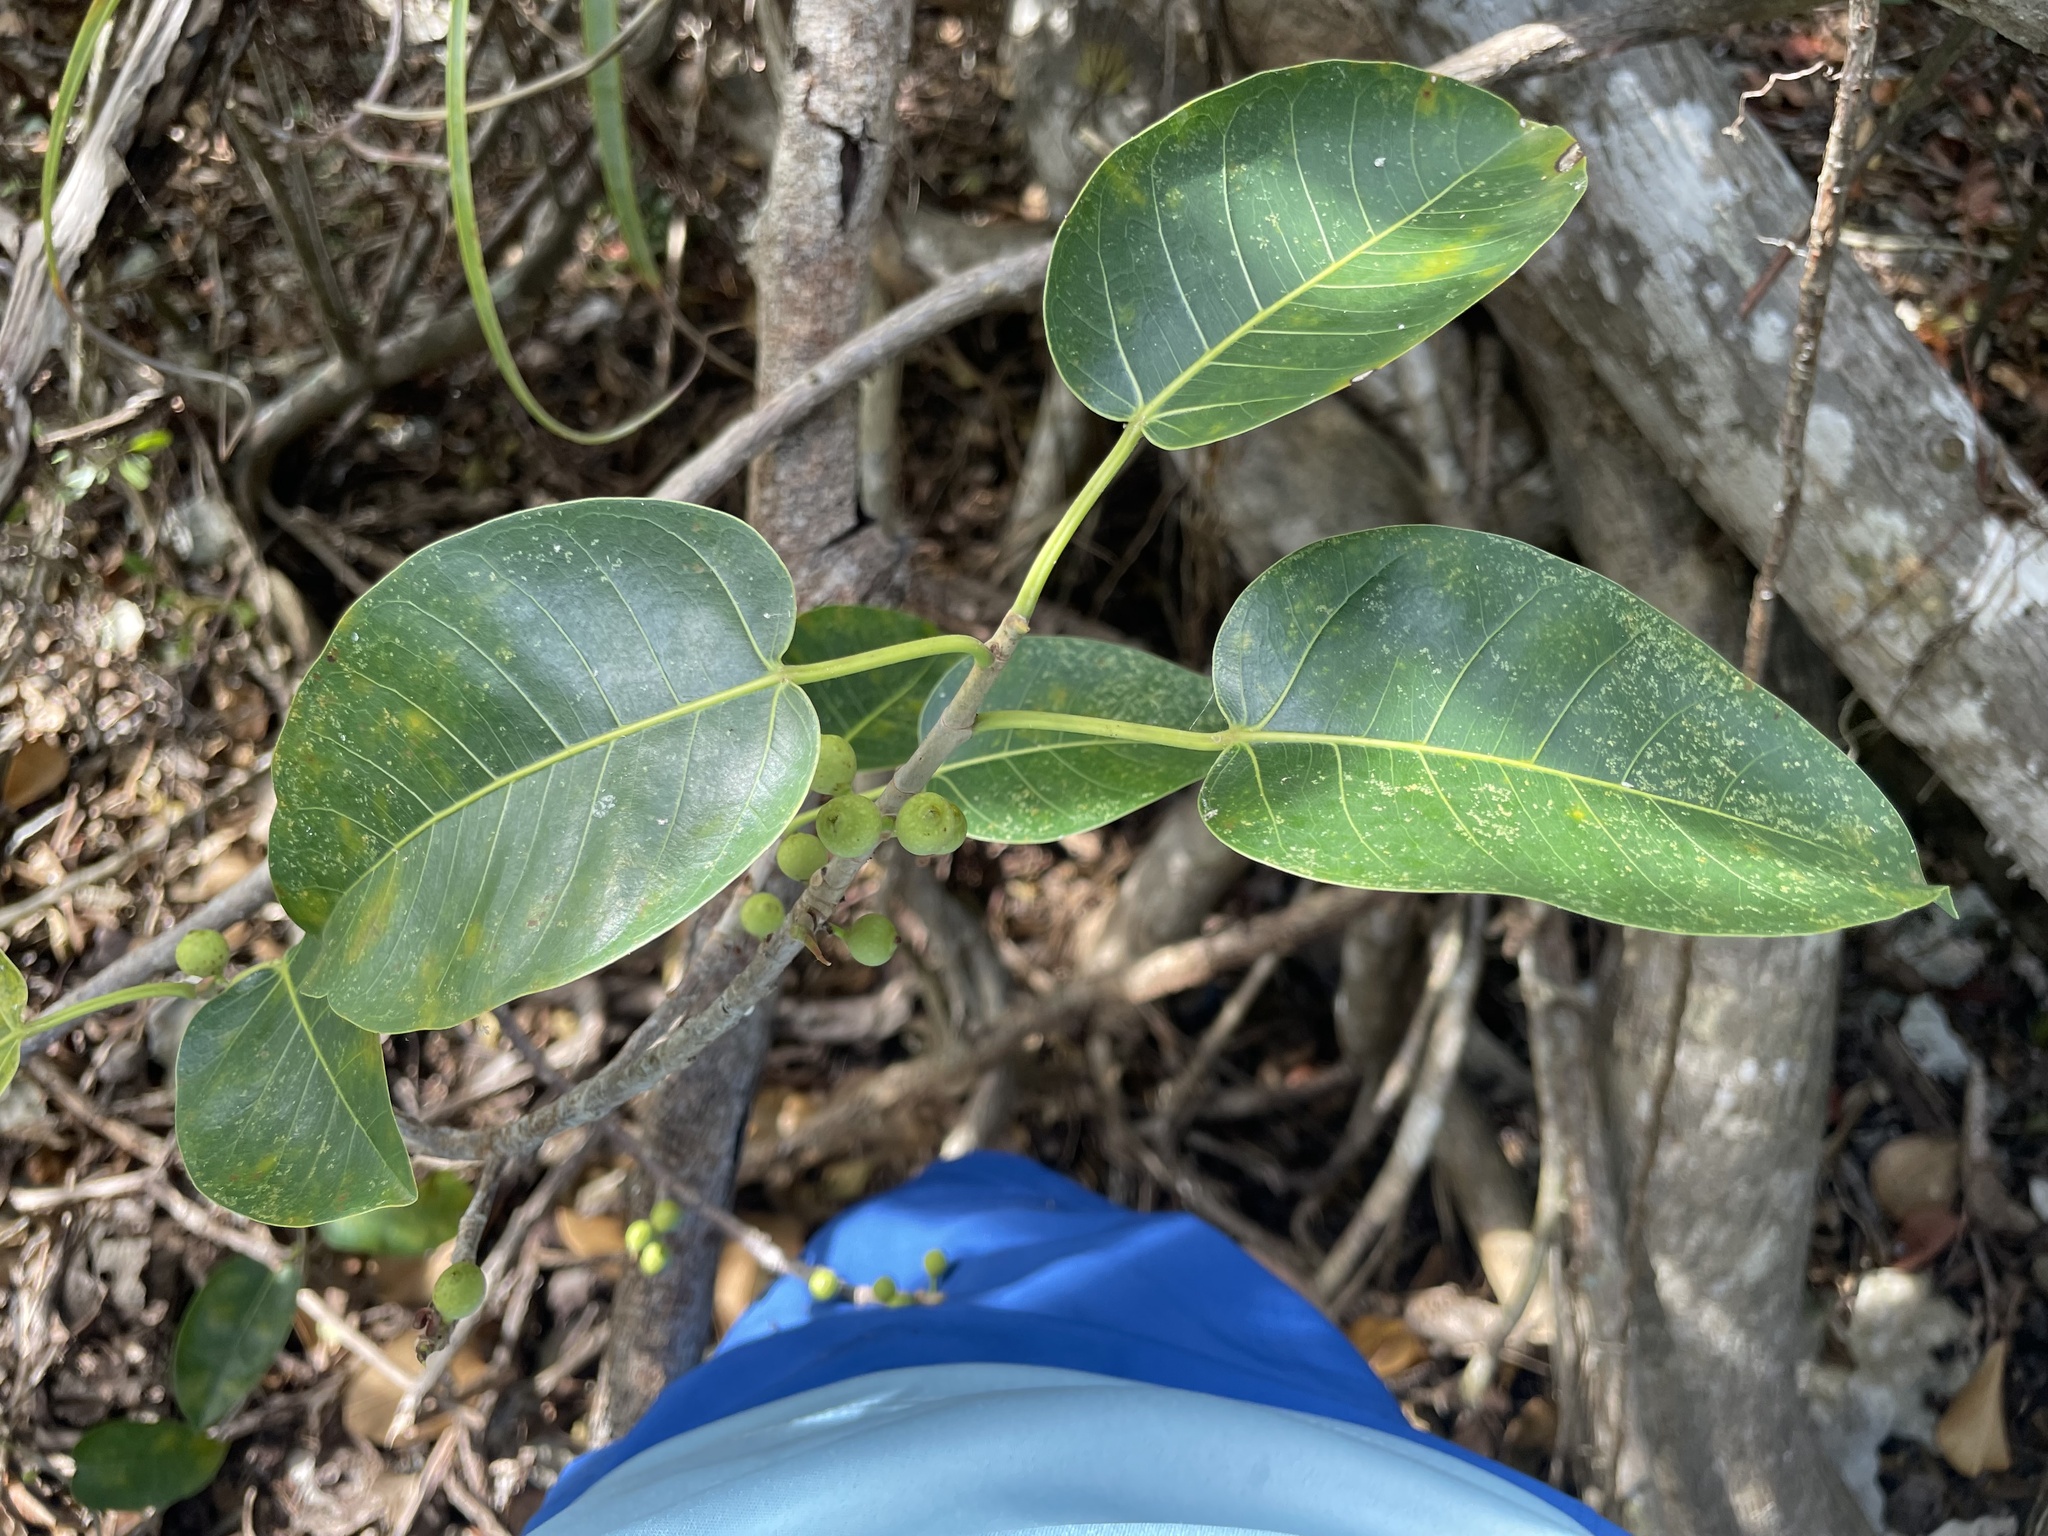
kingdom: Plantae
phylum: Tracheophyta
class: Magnoliopsida
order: Rosales
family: Moraceae
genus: Ficus
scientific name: Ficus citrifolia
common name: Strangler fig
